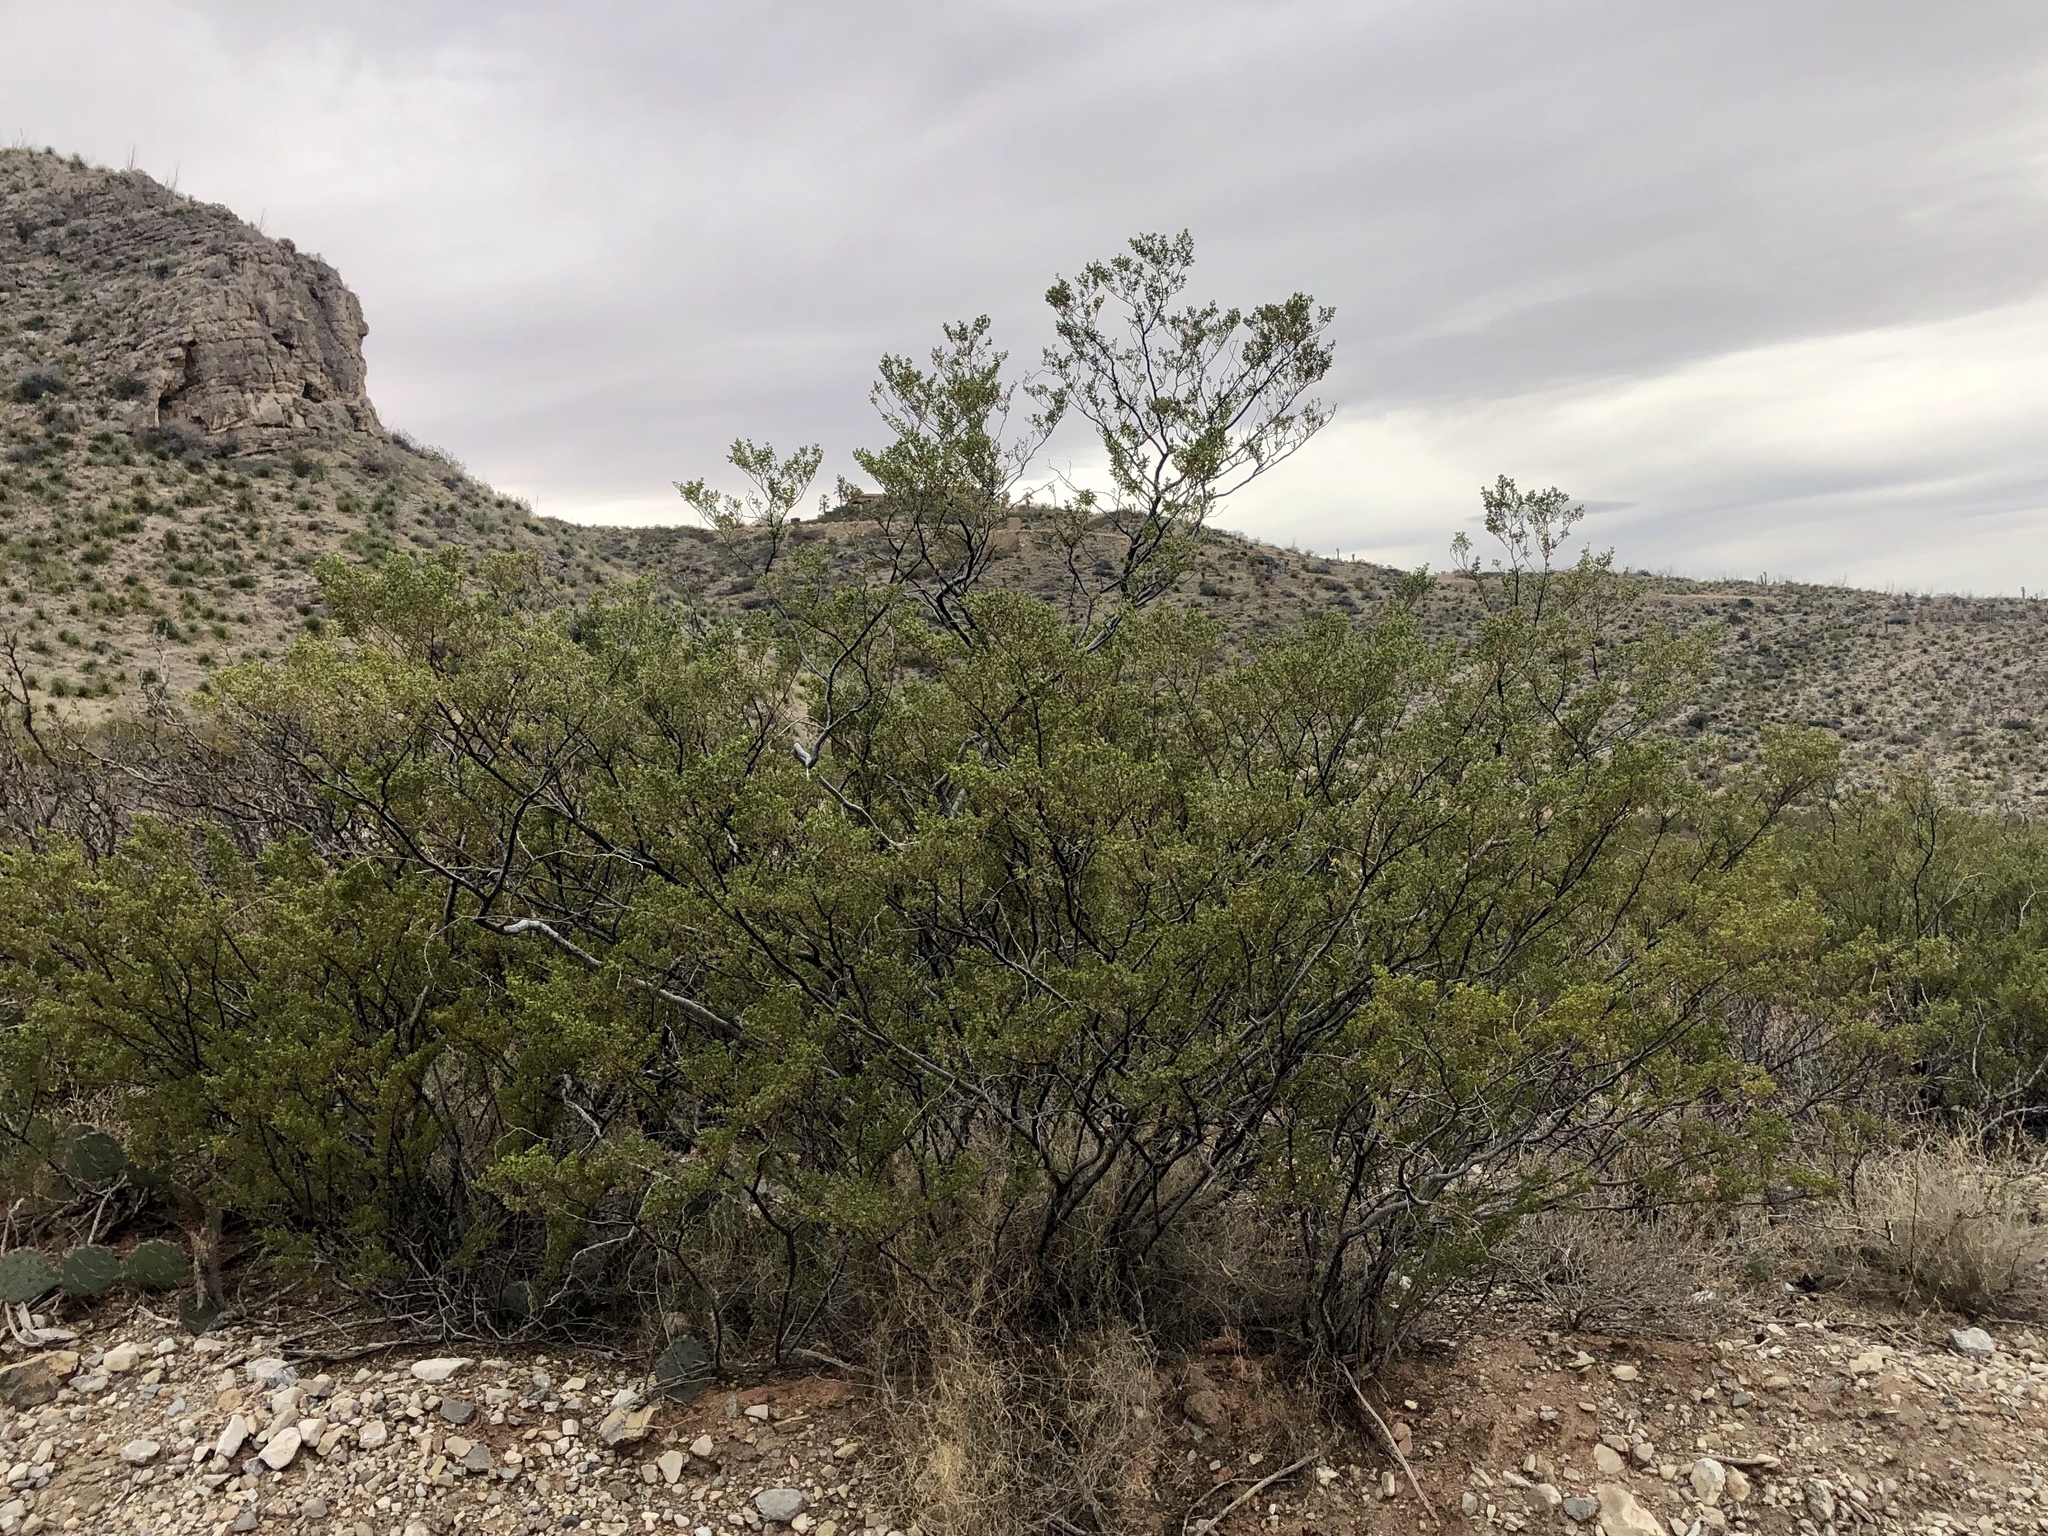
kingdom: Plantae
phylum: Tracheophyta
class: Magnoliopsida
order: Zygophyllales
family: Zygophyllaceae
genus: Larrea
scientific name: Larrea tridentata
